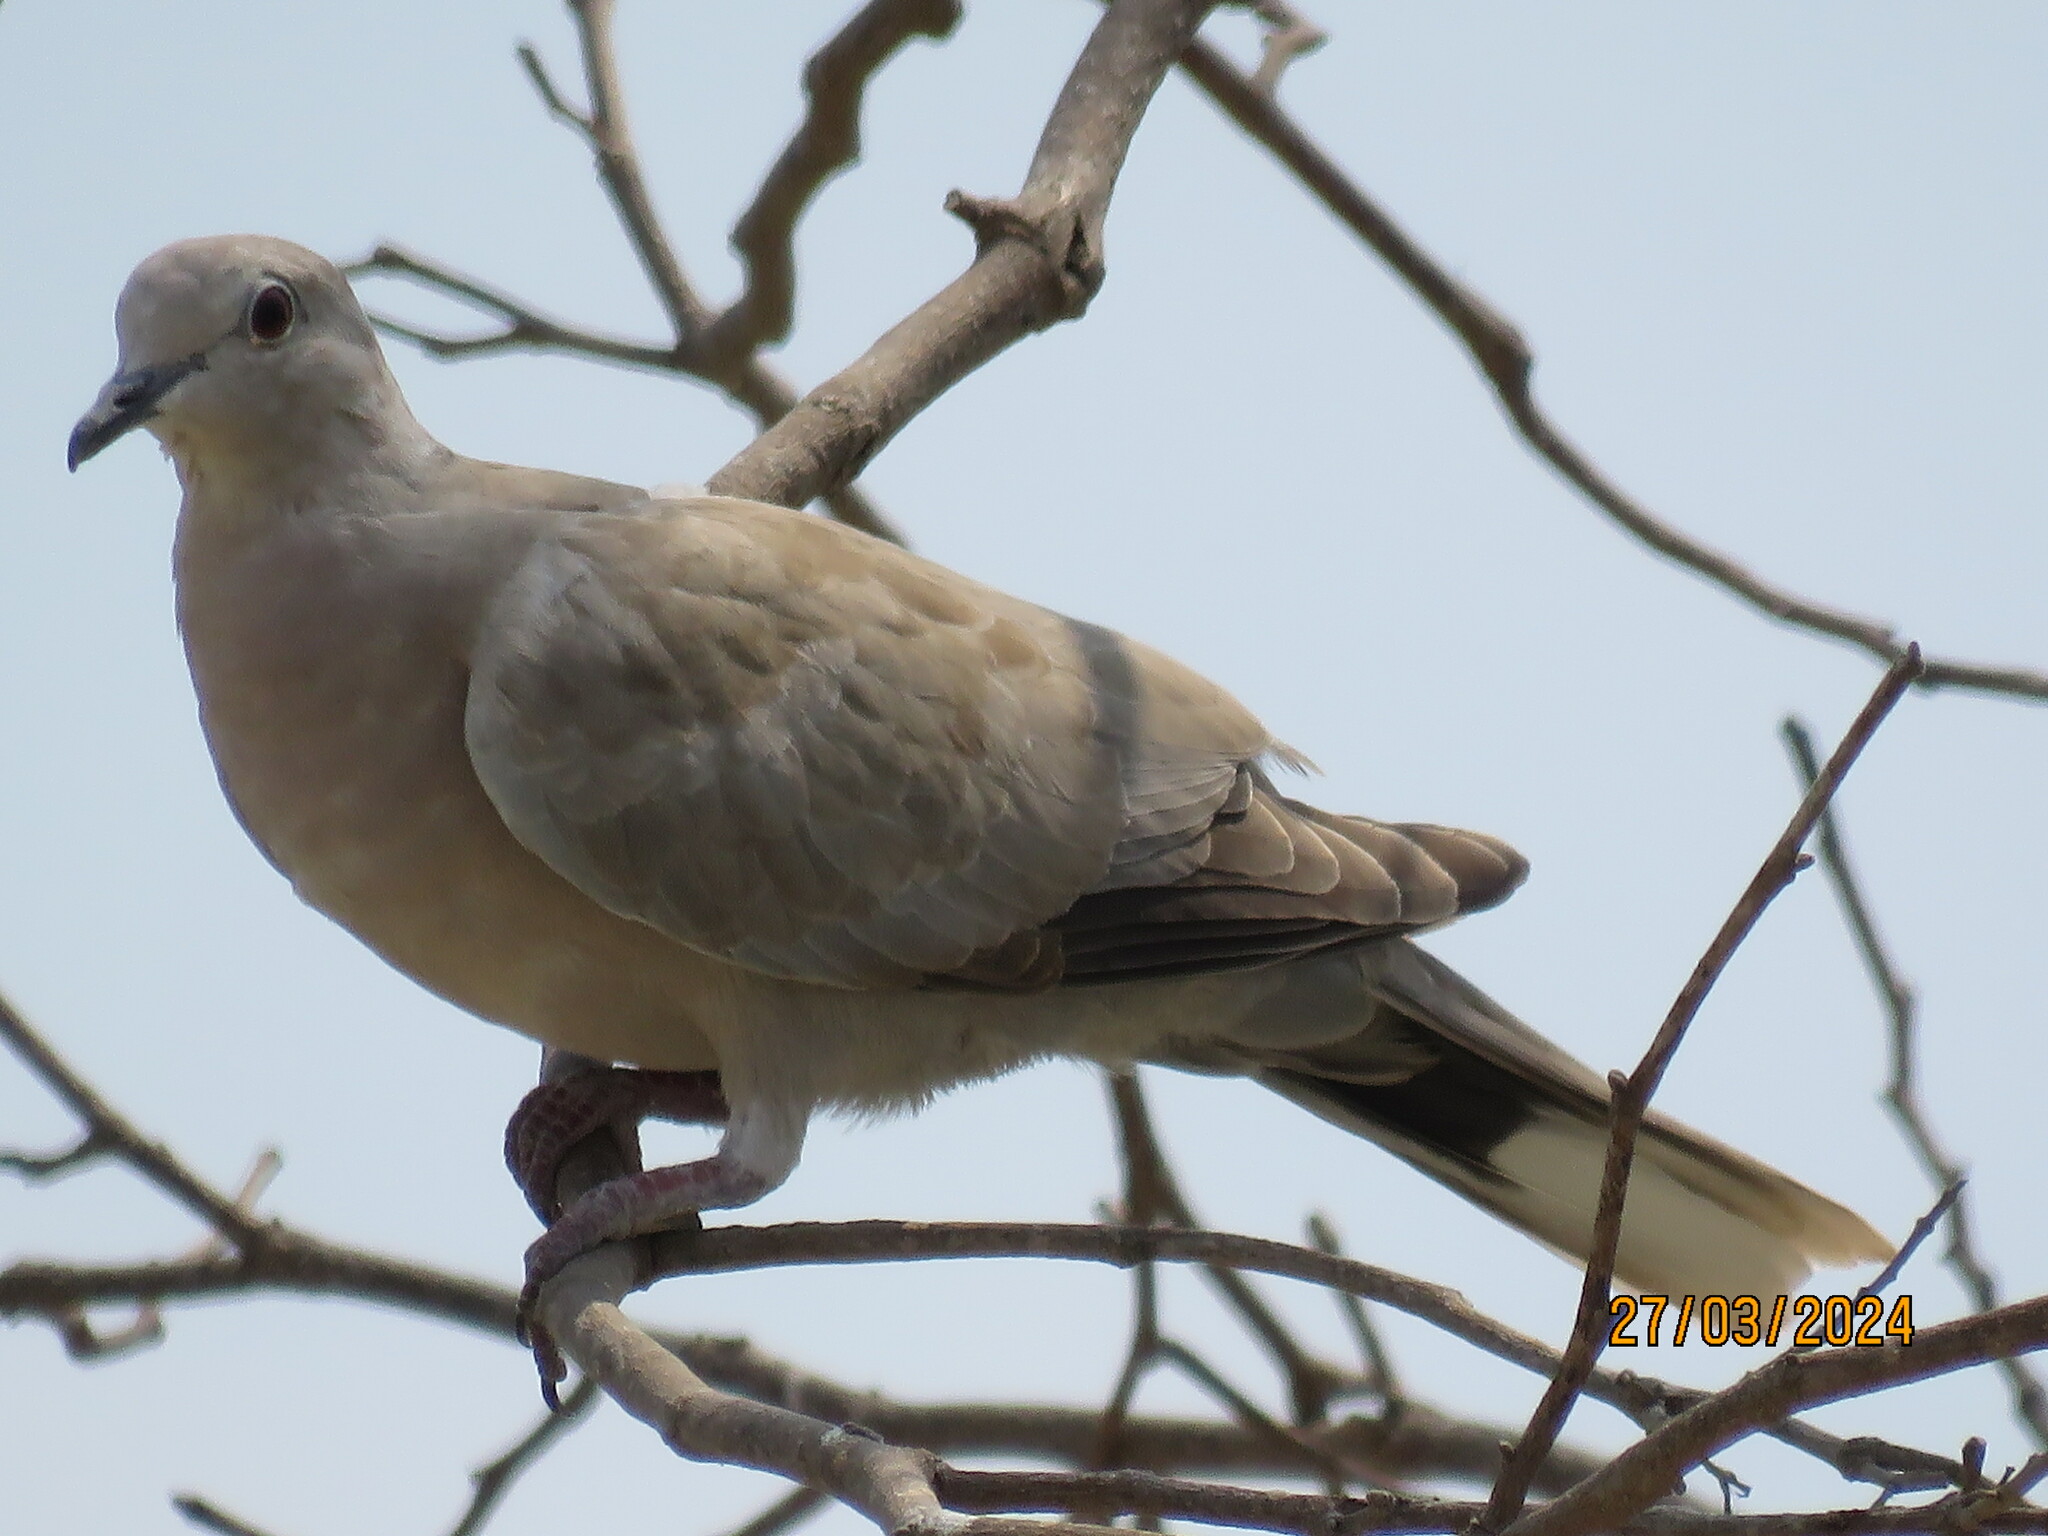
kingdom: Animalia
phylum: Chordata
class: Aves
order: Columbiformes
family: Columbidae
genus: Streptopelia
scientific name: Streptopelia decaocto
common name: Eurasian collared dove
